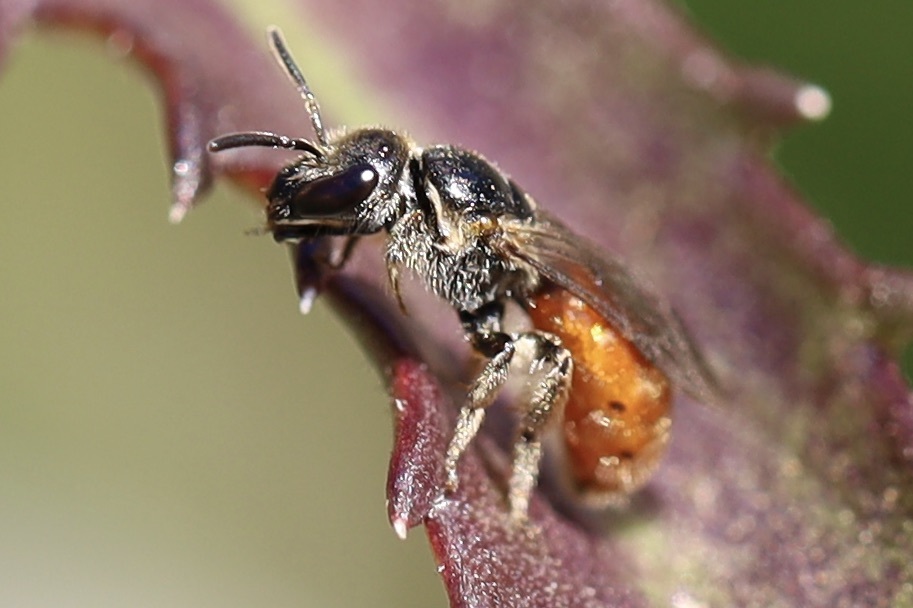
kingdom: Animalia
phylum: Arthropoda
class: Insecta
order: Hymenoptera
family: Halictidae
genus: Lasioglossum
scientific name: Lasioglossum ovaliceps
